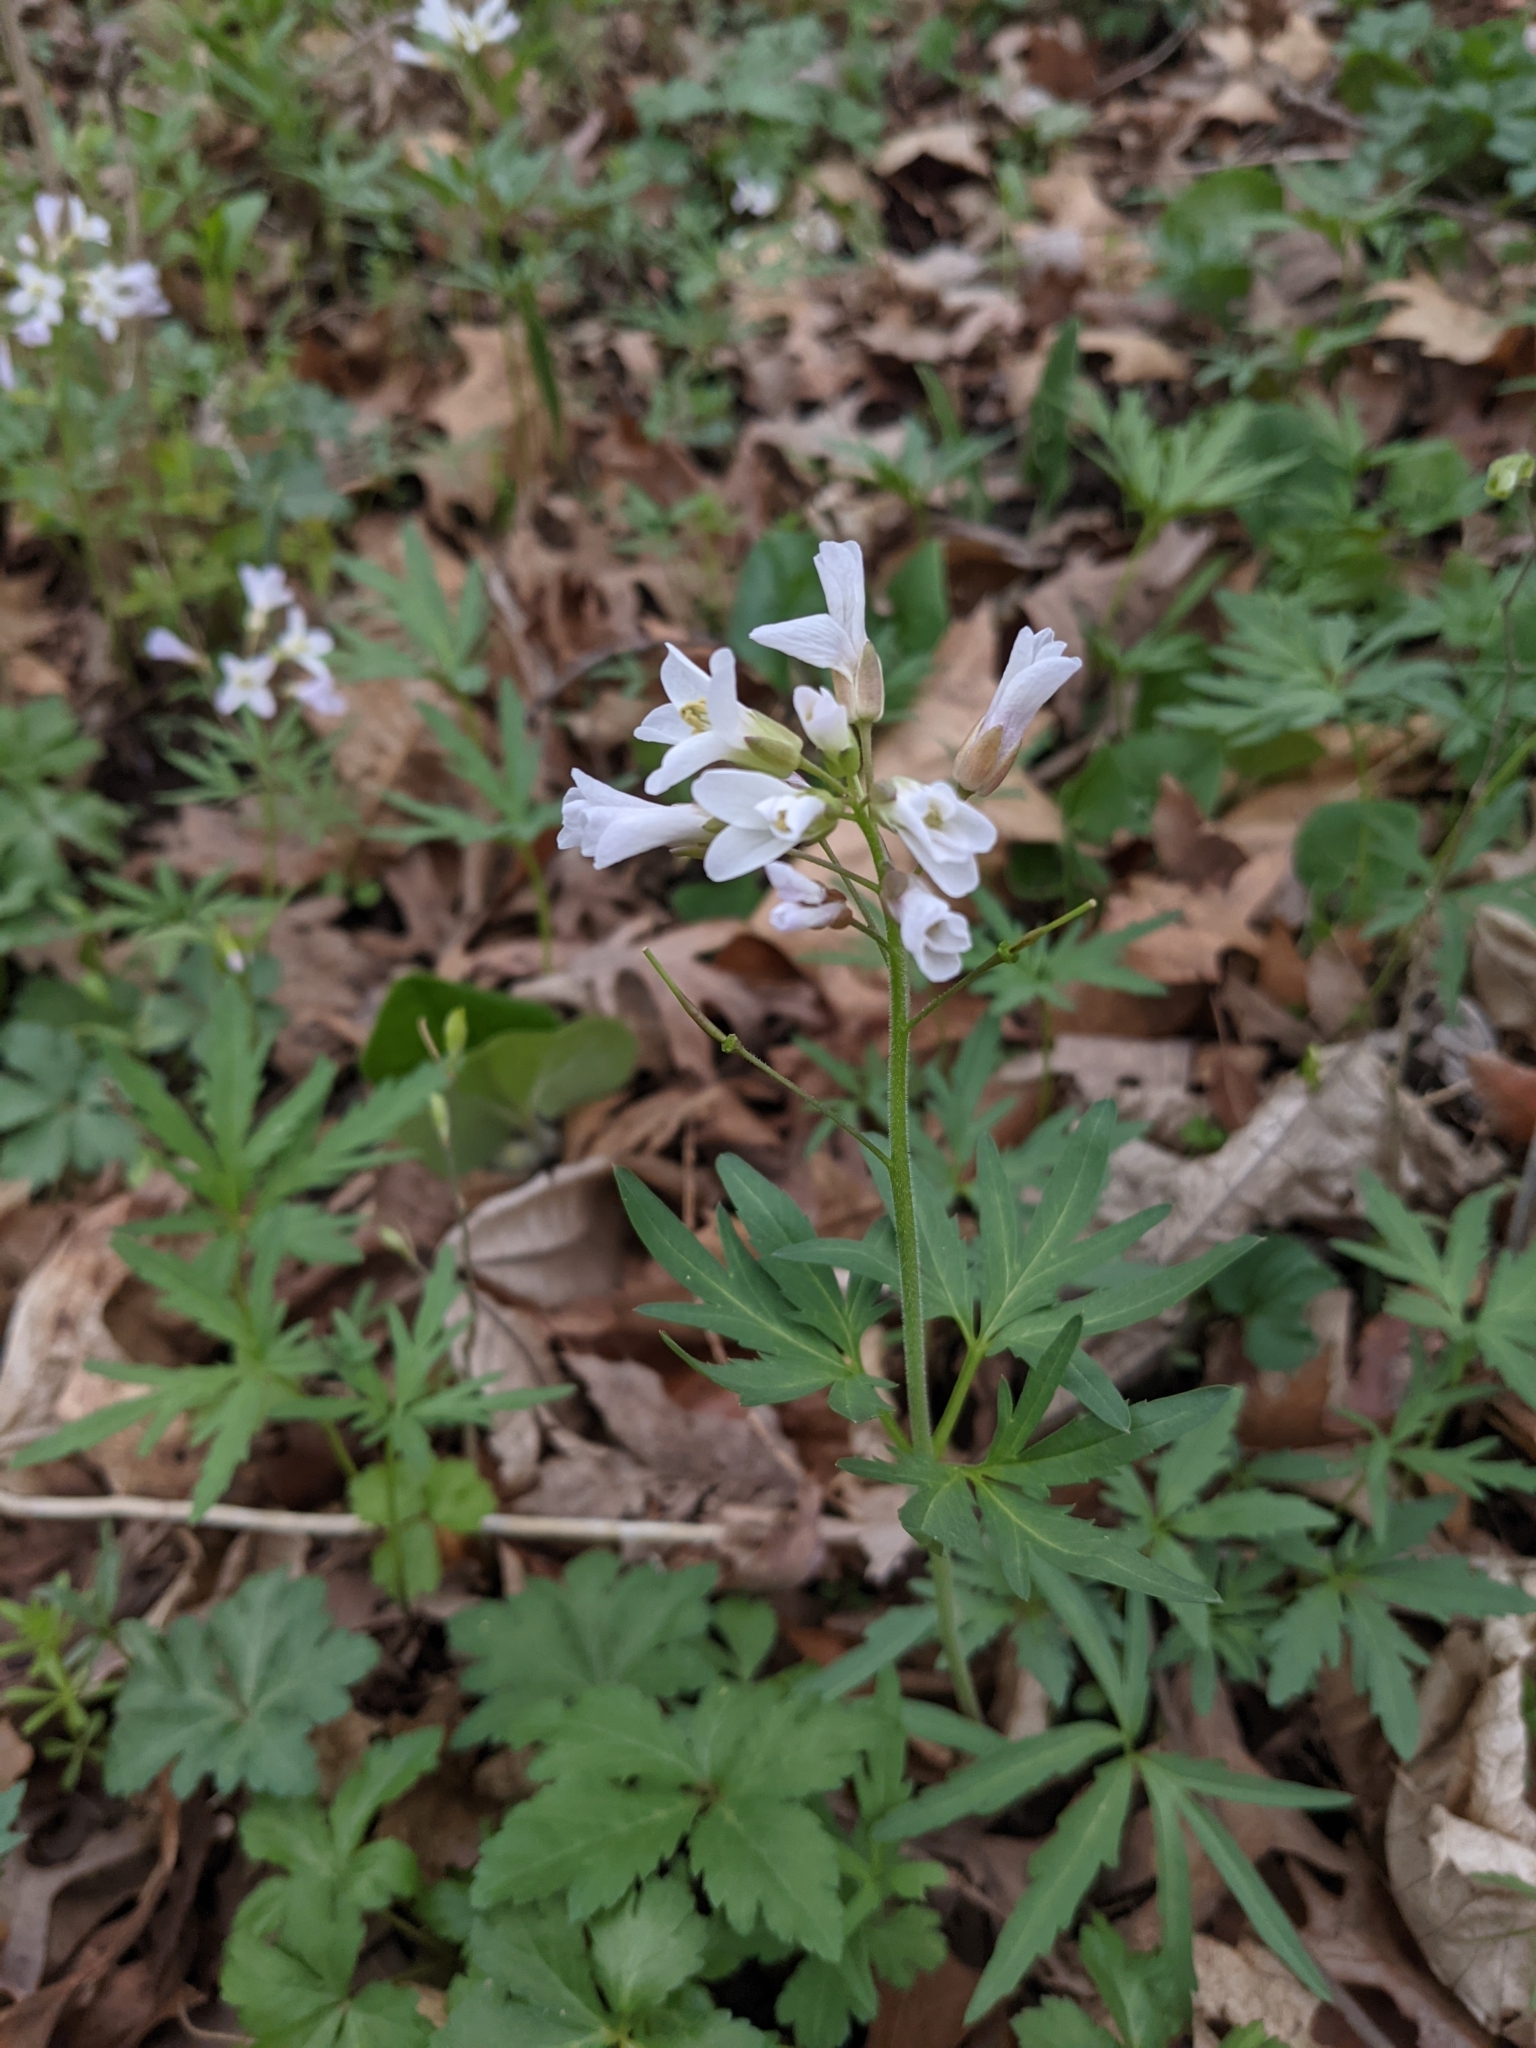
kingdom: Plantae
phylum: Tracheophyta
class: Magnoliopsida
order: Brassicales
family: Brassicaceae
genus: Cardamine
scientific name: Cardamine concatenata
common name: Cut-leaf toothcup
